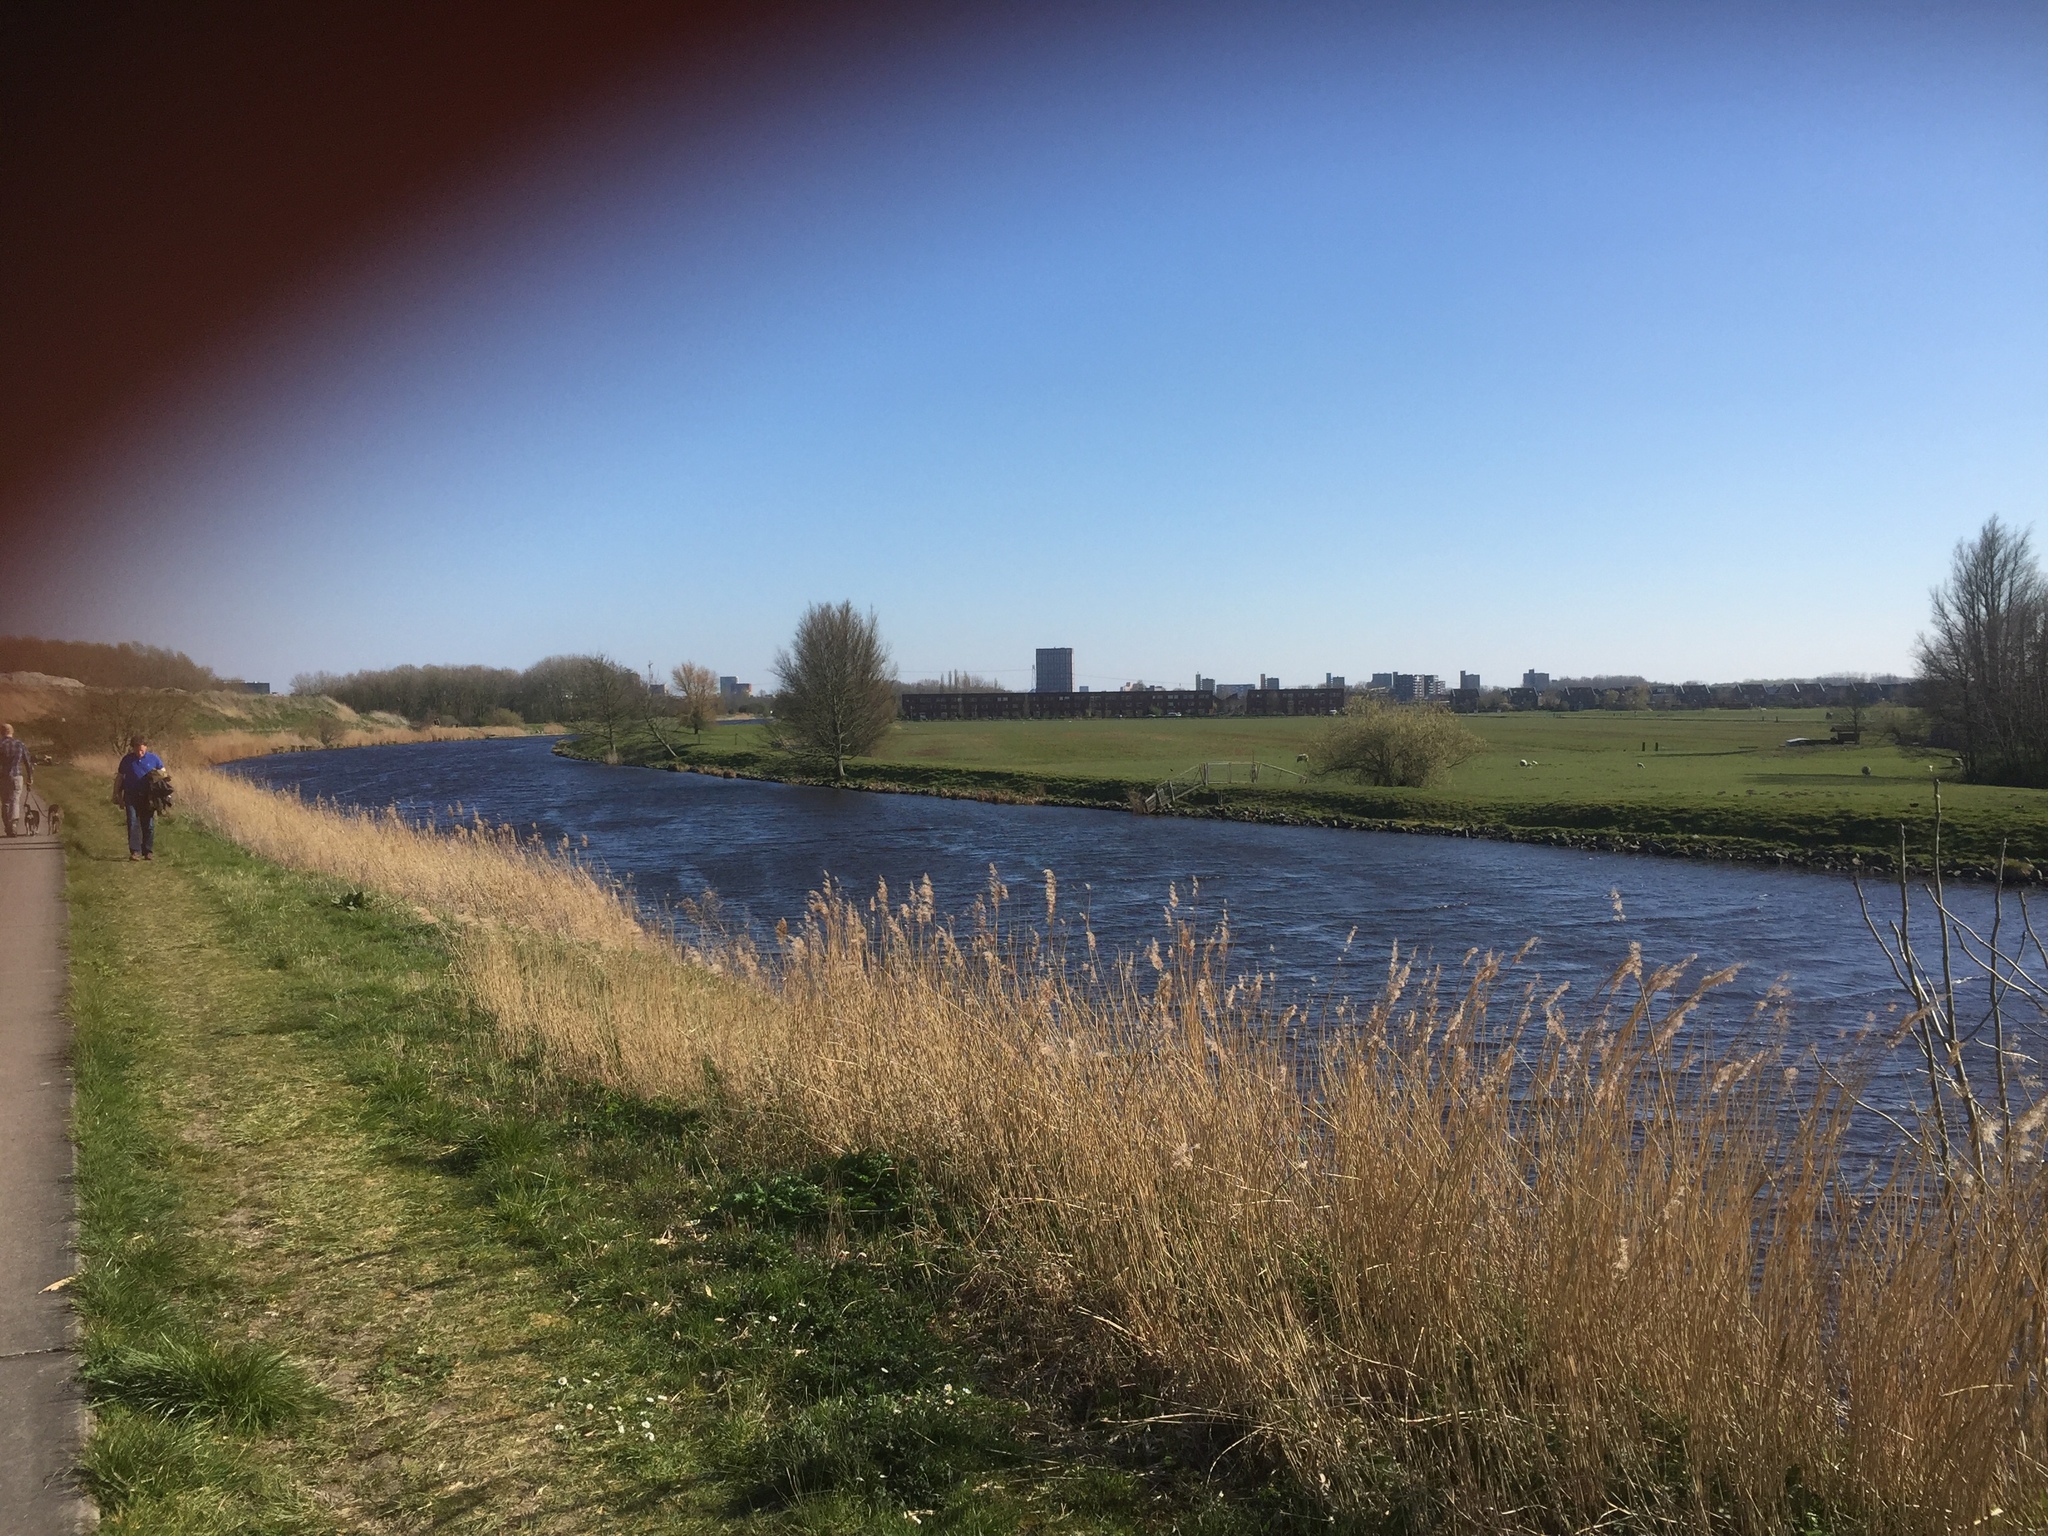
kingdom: Plantae
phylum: Tracheophyta
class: Liliopsida
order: Poales
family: Poaceae
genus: Phragmites
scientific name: Phragmites australis
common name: Common reed
